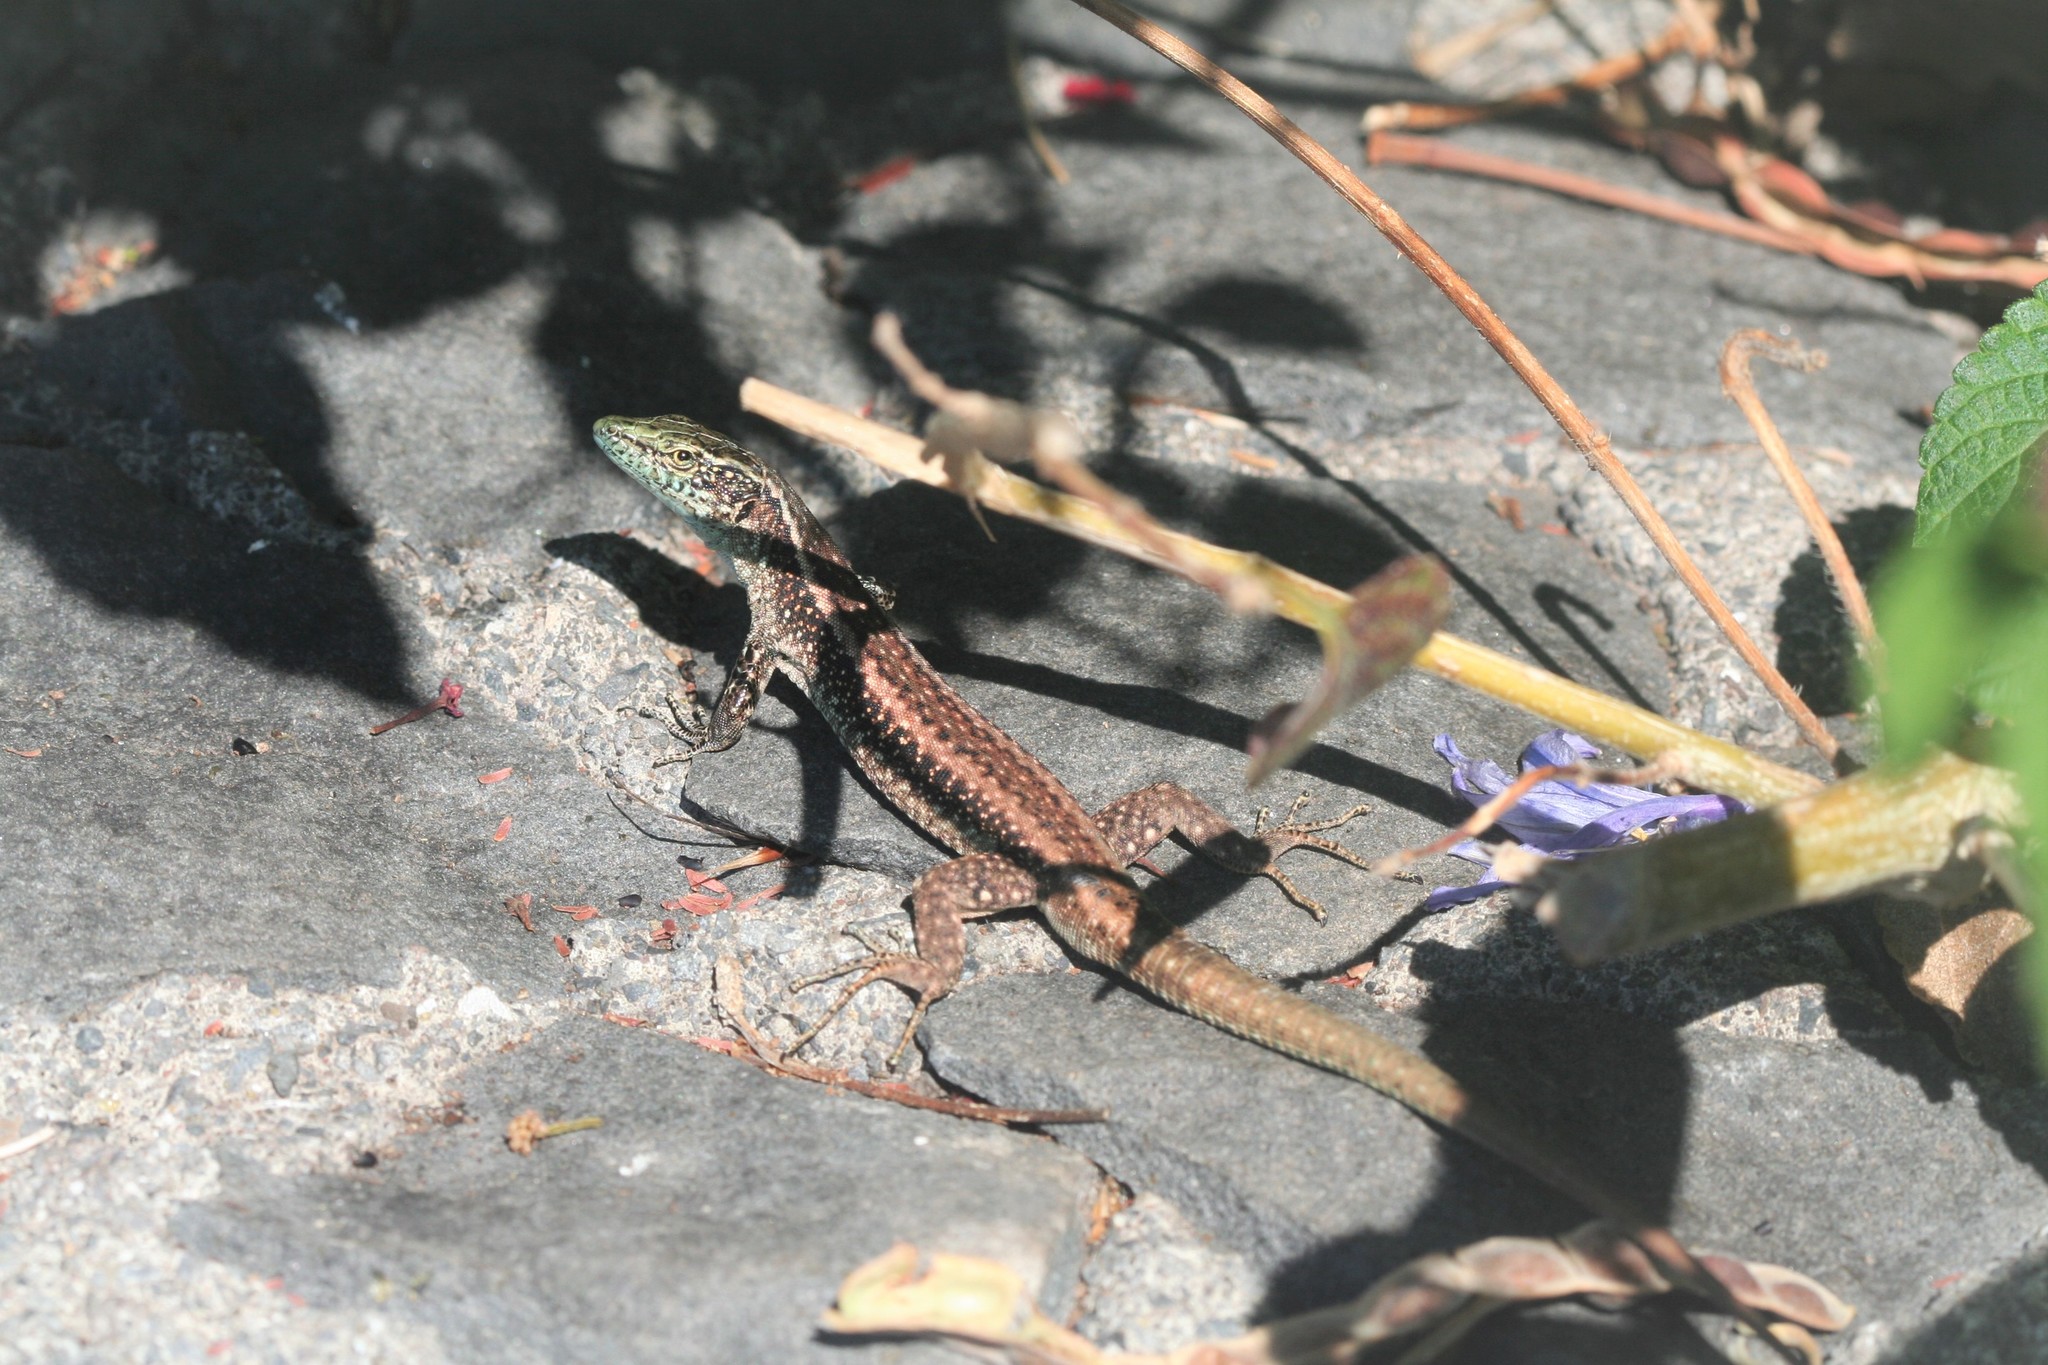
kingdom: Animalia
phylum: Chordata
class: Squamata
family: Lacertidae
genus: Teira
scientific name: Teira dugesii
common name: Madeira lizard
